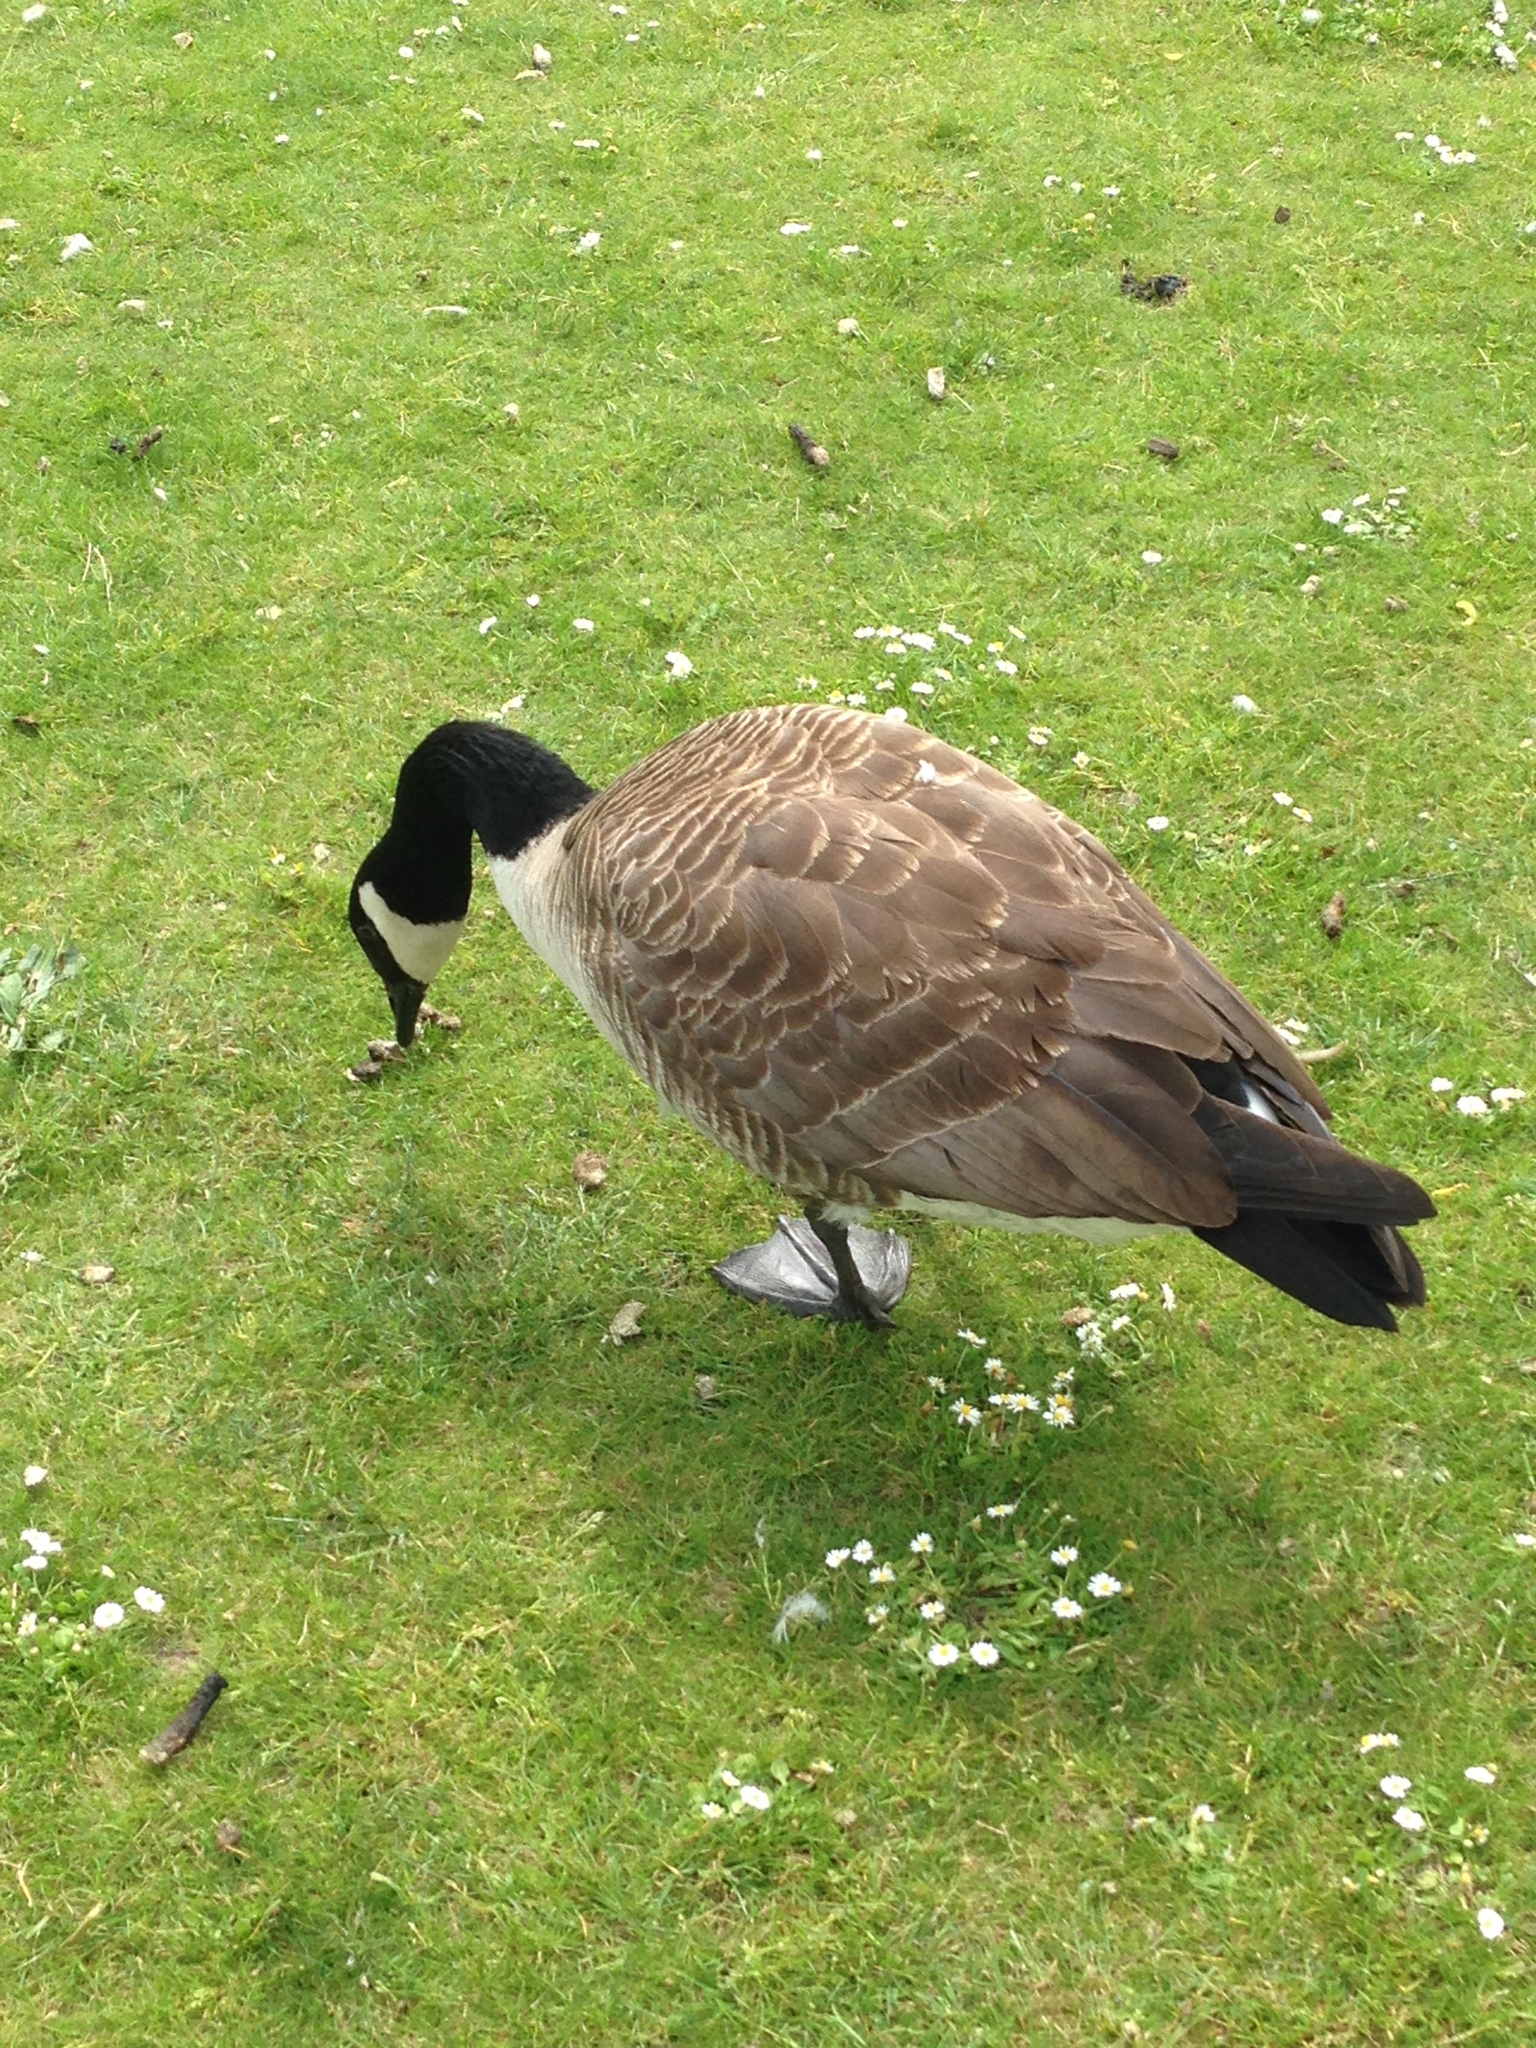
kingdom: Animalia
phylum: Chordata
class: Aves
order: Anseriformes
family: Anatidae
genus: Branta
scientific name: Branta canadensis
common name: Canada goose
